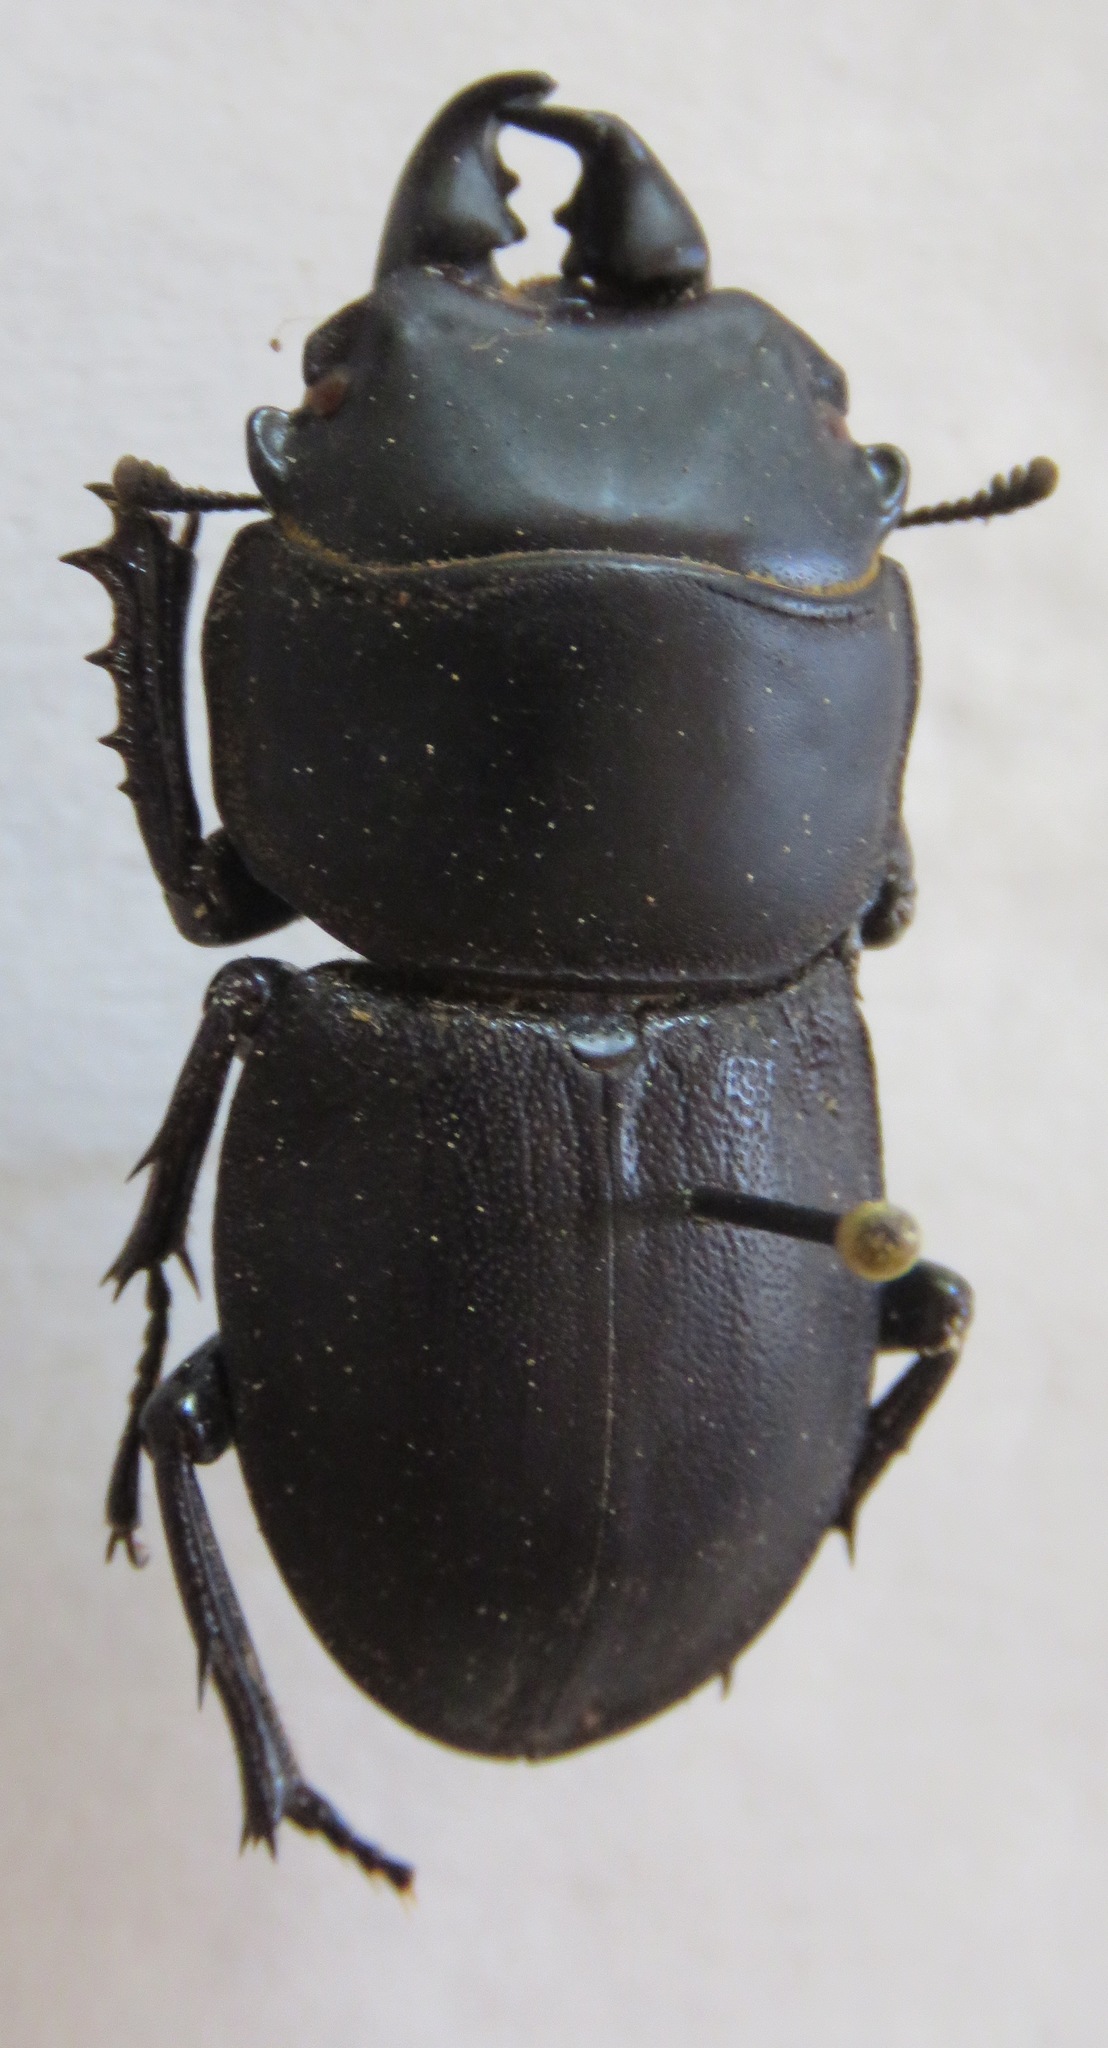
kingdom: Animalia
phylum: Arthropoda
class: Insecta
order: Coleoptera
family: Lucanidae
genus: Apterodorcus
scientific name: Apterodorcus bacchus
